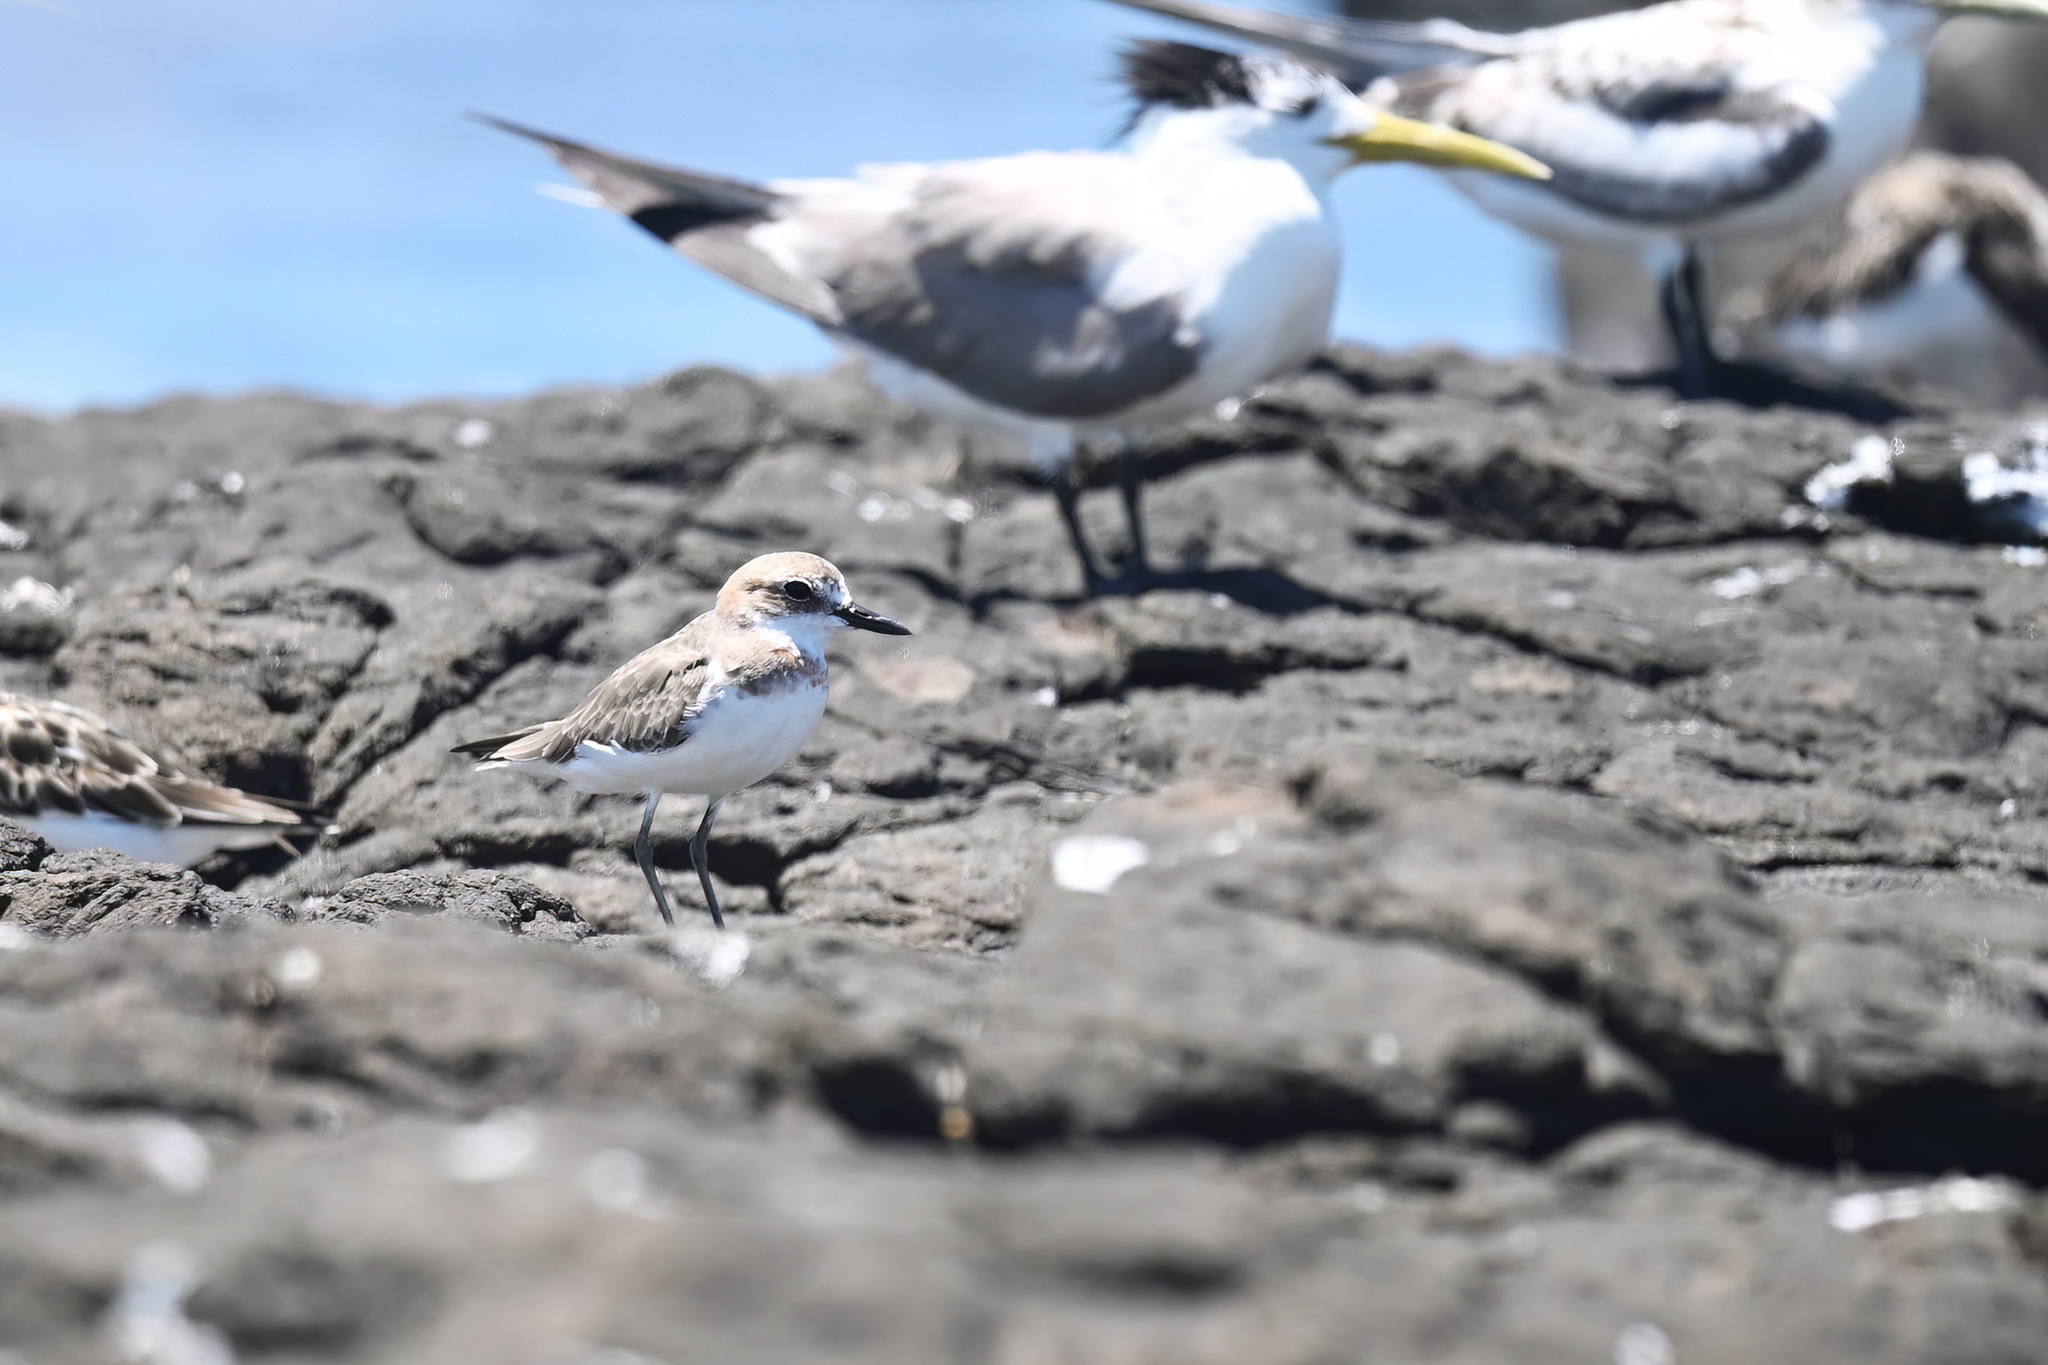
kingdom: Animalia
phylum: Chordata
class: Aves
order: Charadriiformes
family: Charadriidae
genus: Charadrius
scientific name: Charadrius leschenaultii
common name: Greater sand plover
